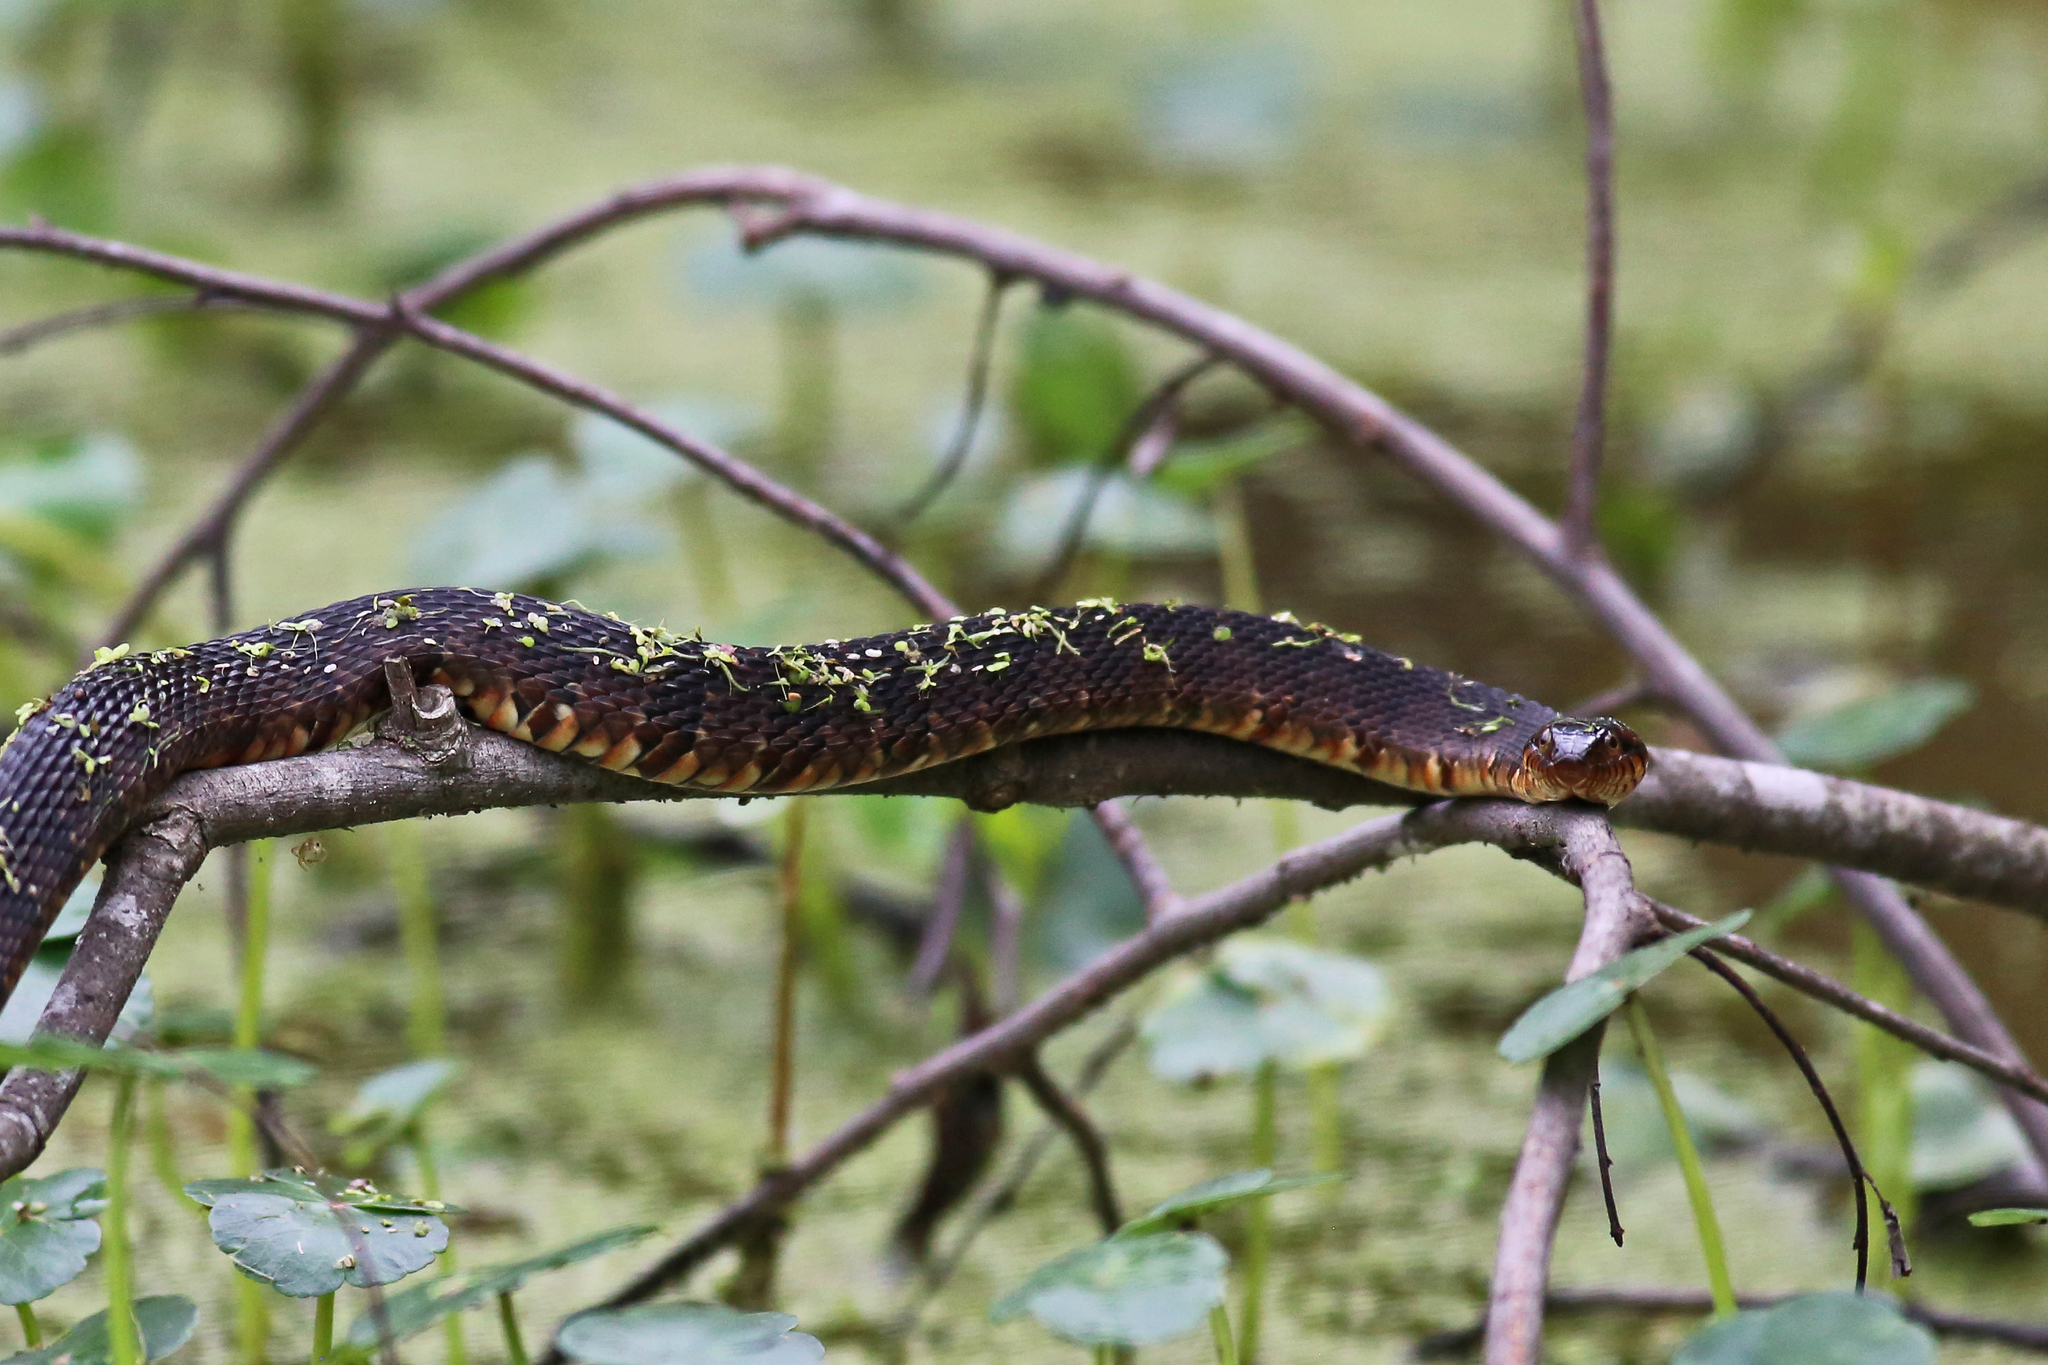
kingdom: Animalia
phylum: Chordata
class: Squamata
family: Colubridae
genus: Nerodia
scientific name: Nerodia fasciata
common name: Southern water snake
